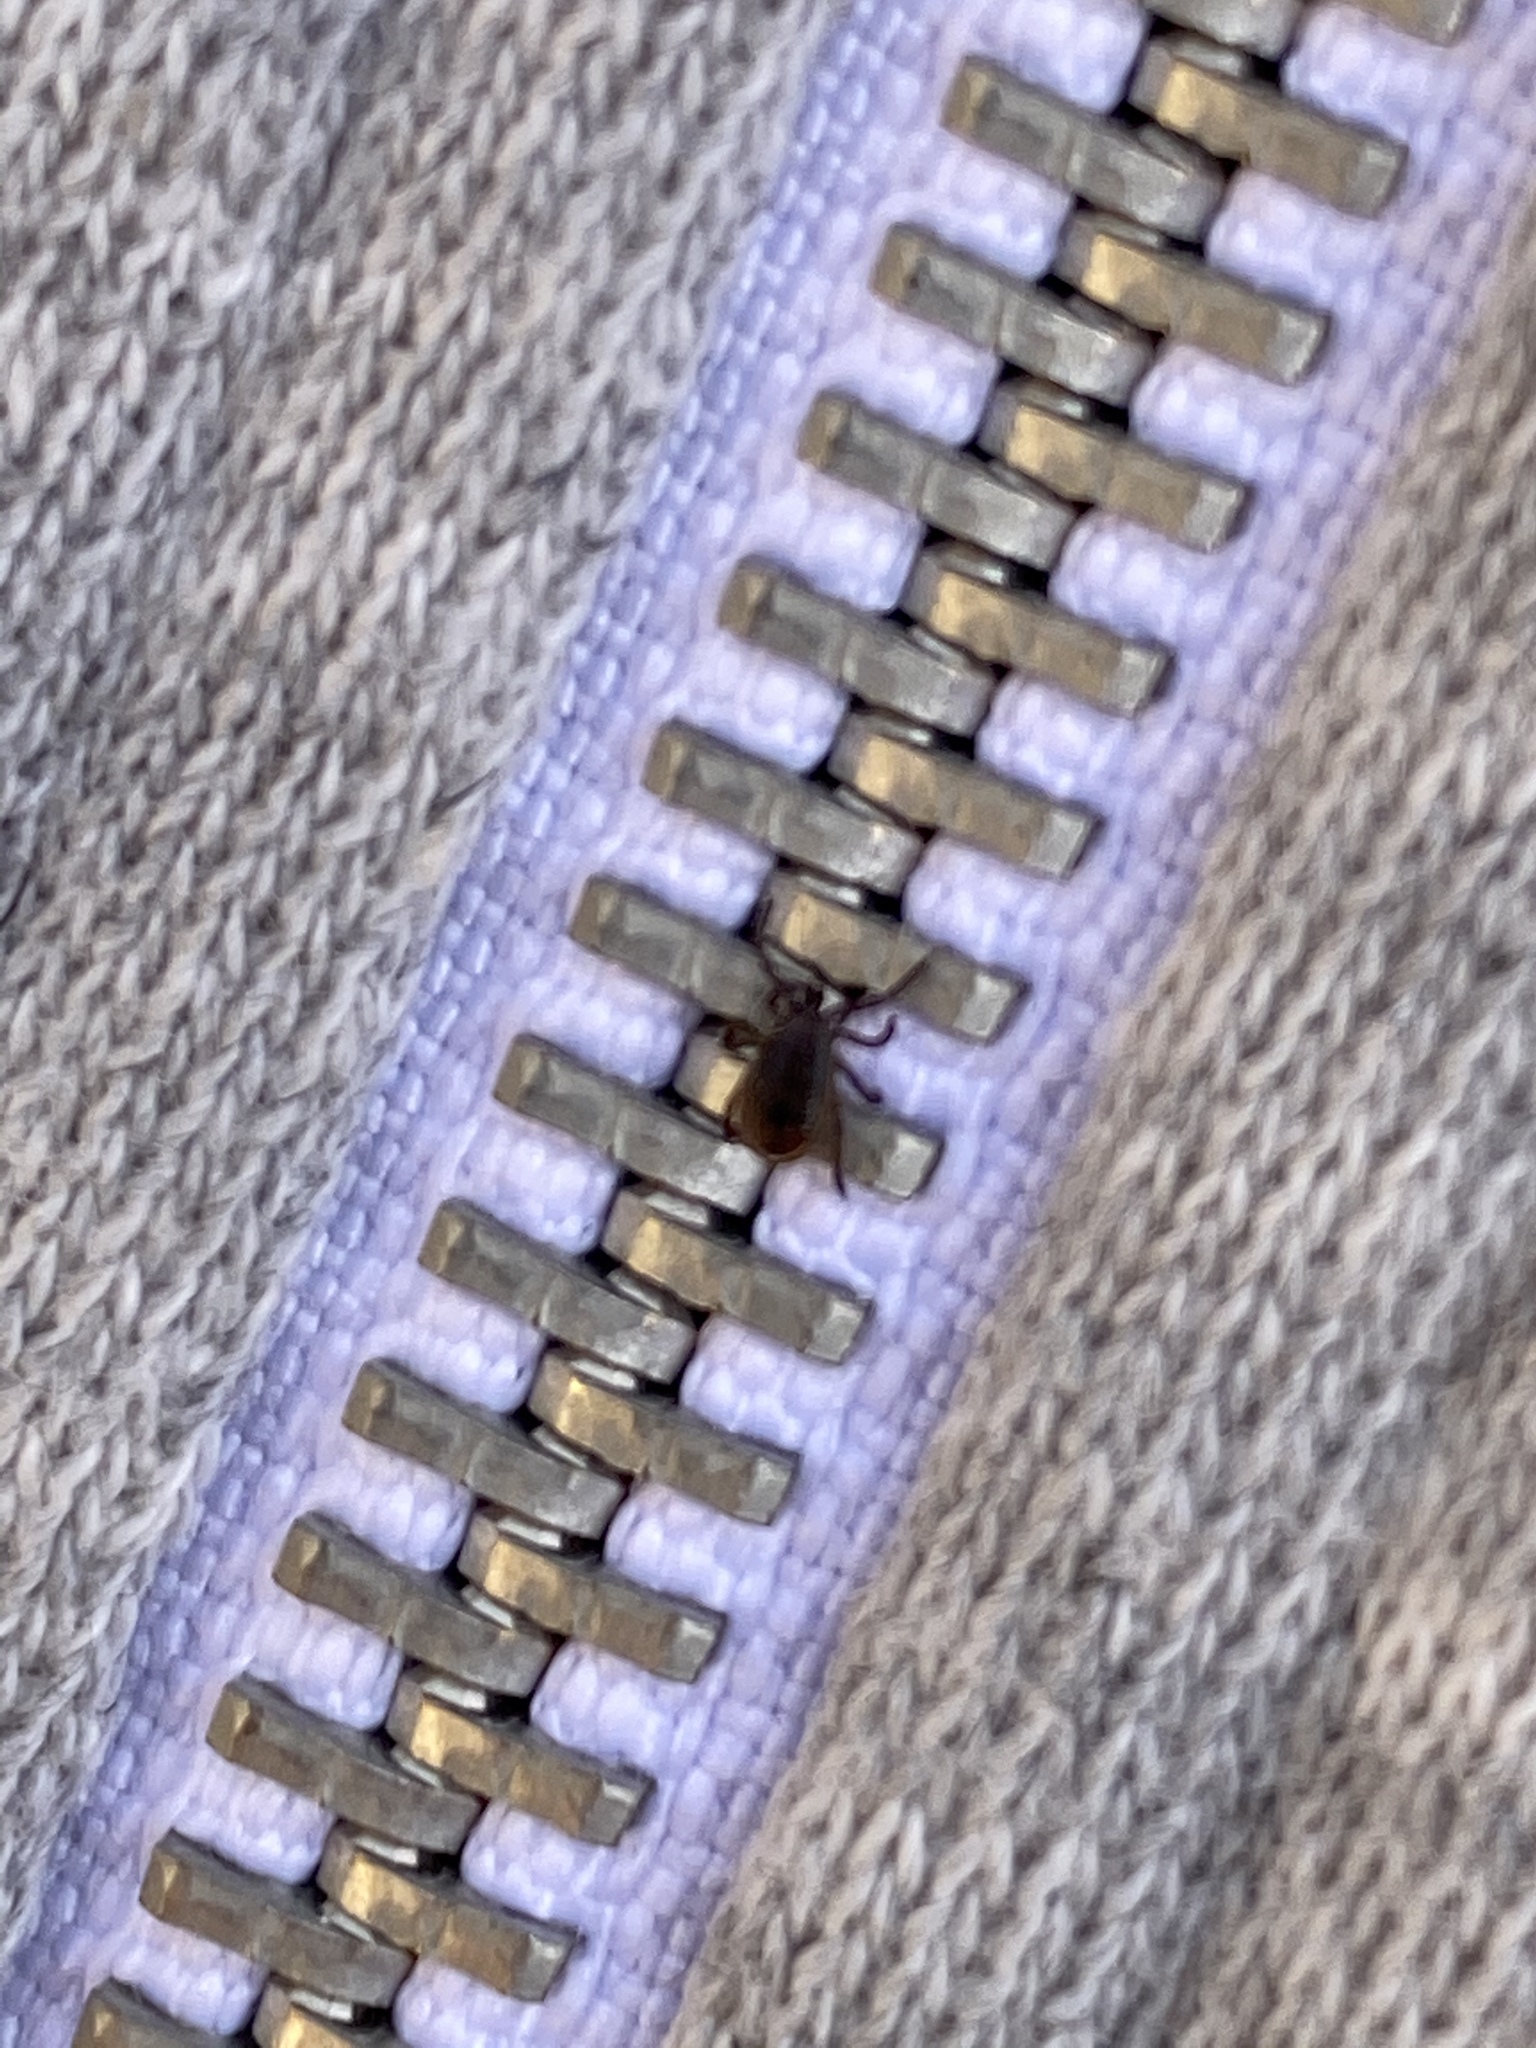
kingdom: Animalia
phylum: Arthropoda
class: Arachnida
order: Ixodida
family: Ixodidae
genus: Ixodes
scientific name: Ixodes scapularis
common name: Black legged tick
